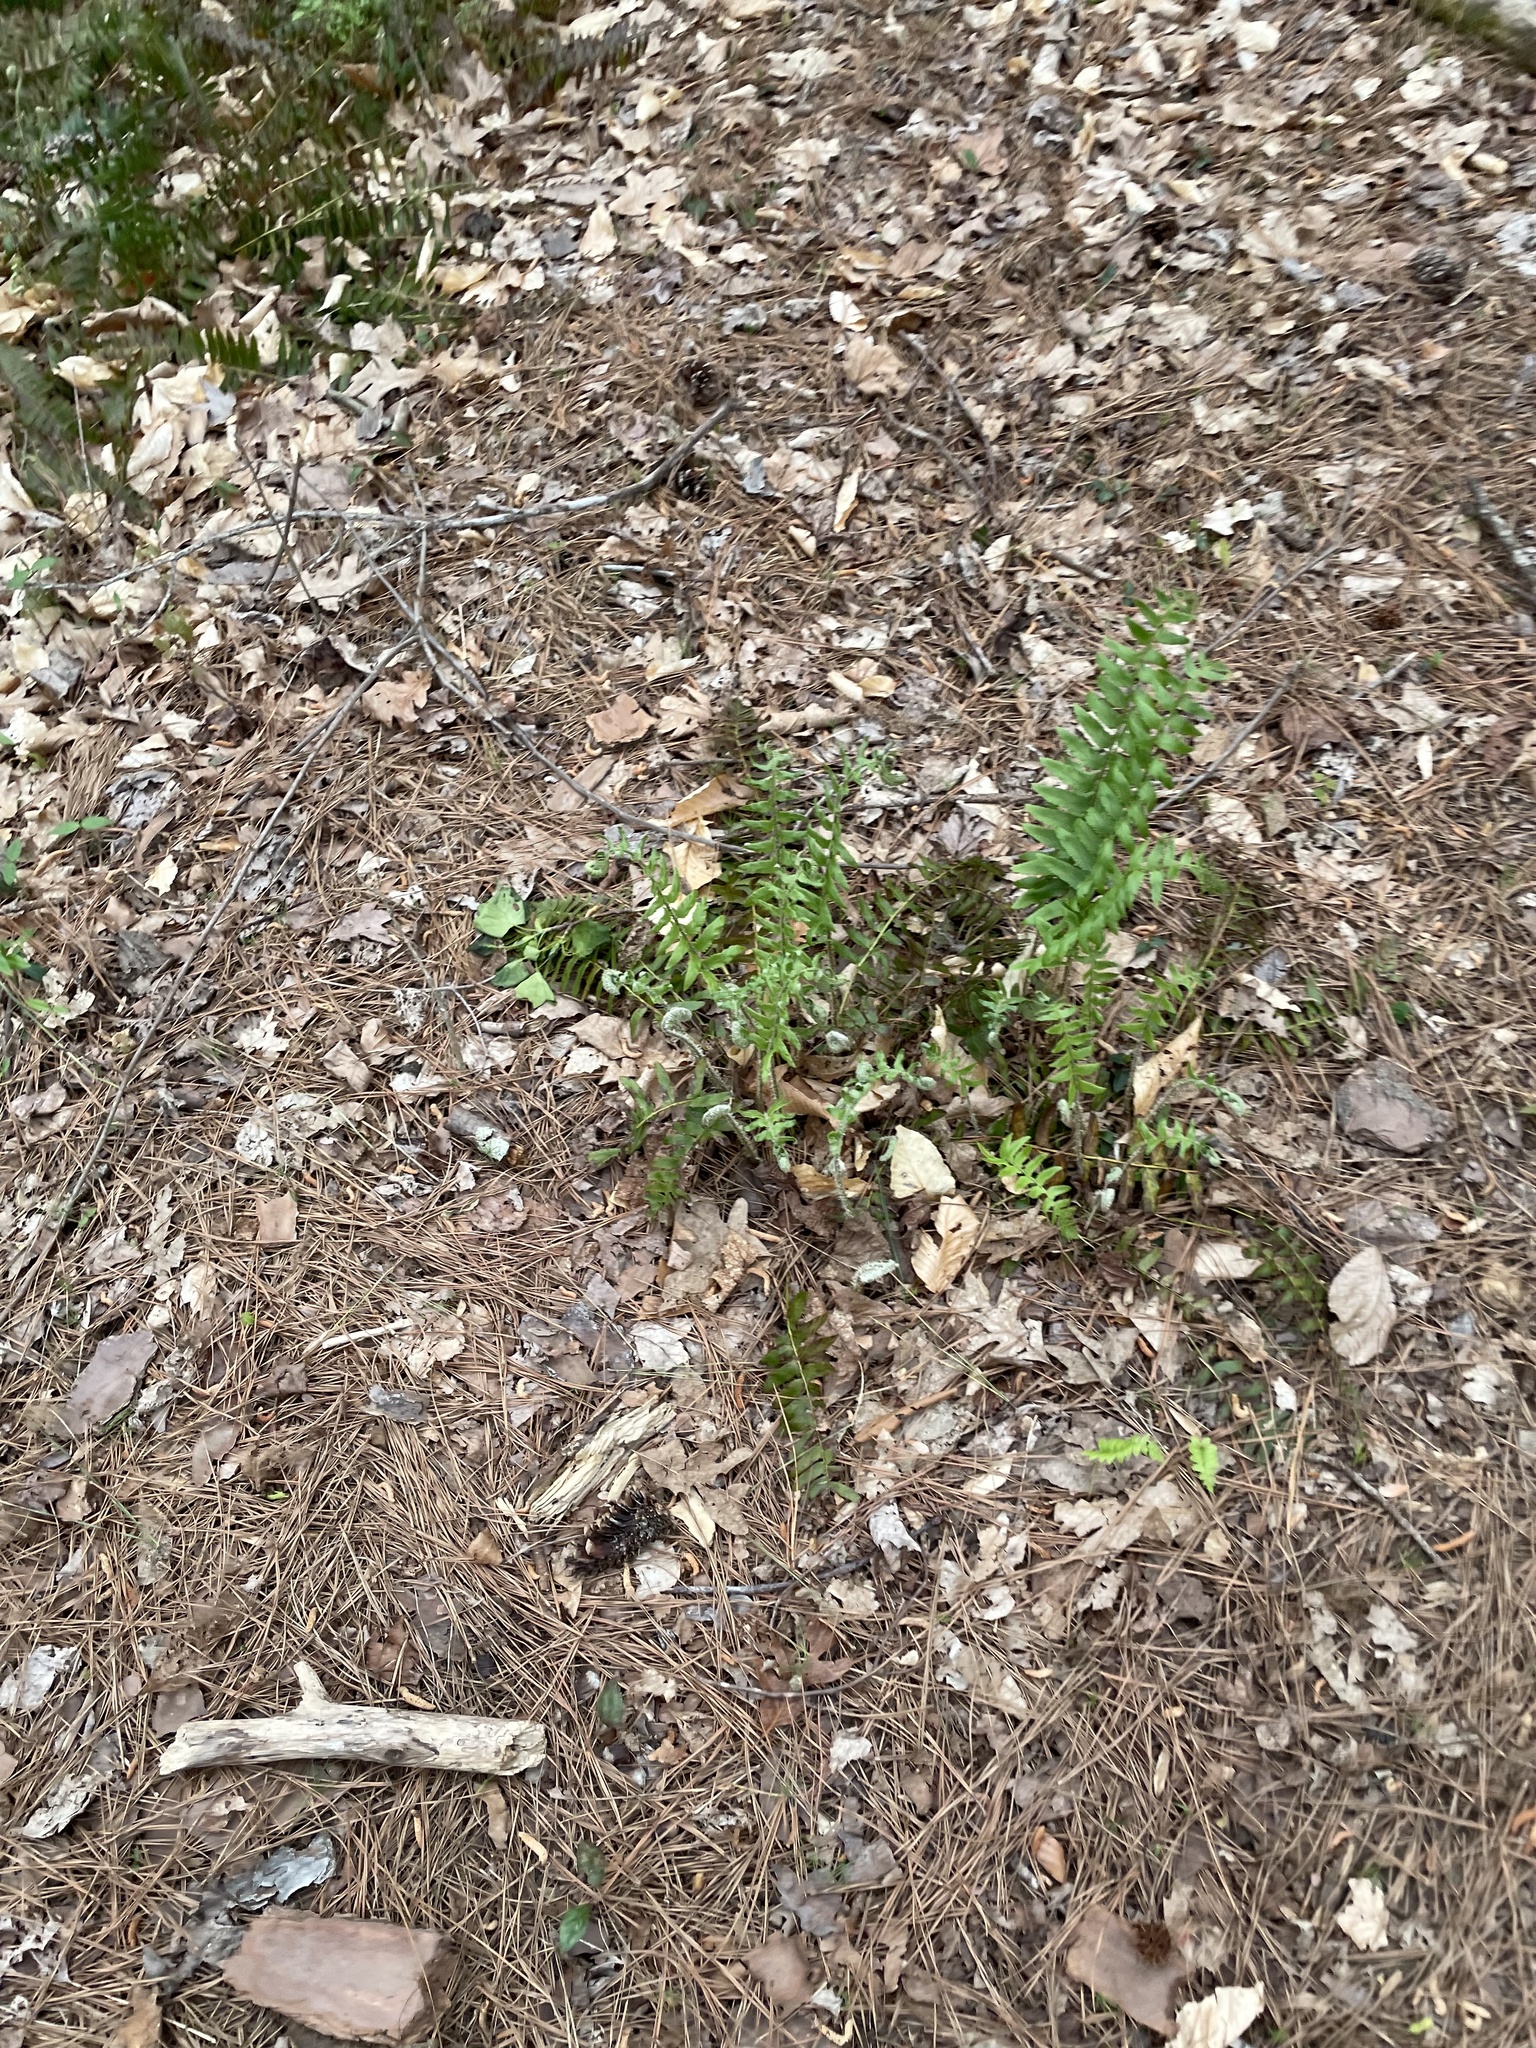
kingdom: Plantae
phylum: Tracheophyta
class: Polypodiopsida
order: Polypodiales
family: Dryopteridaceae
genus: Polystichum
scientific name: Polystichum acrostichoides
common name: Christmas fern
